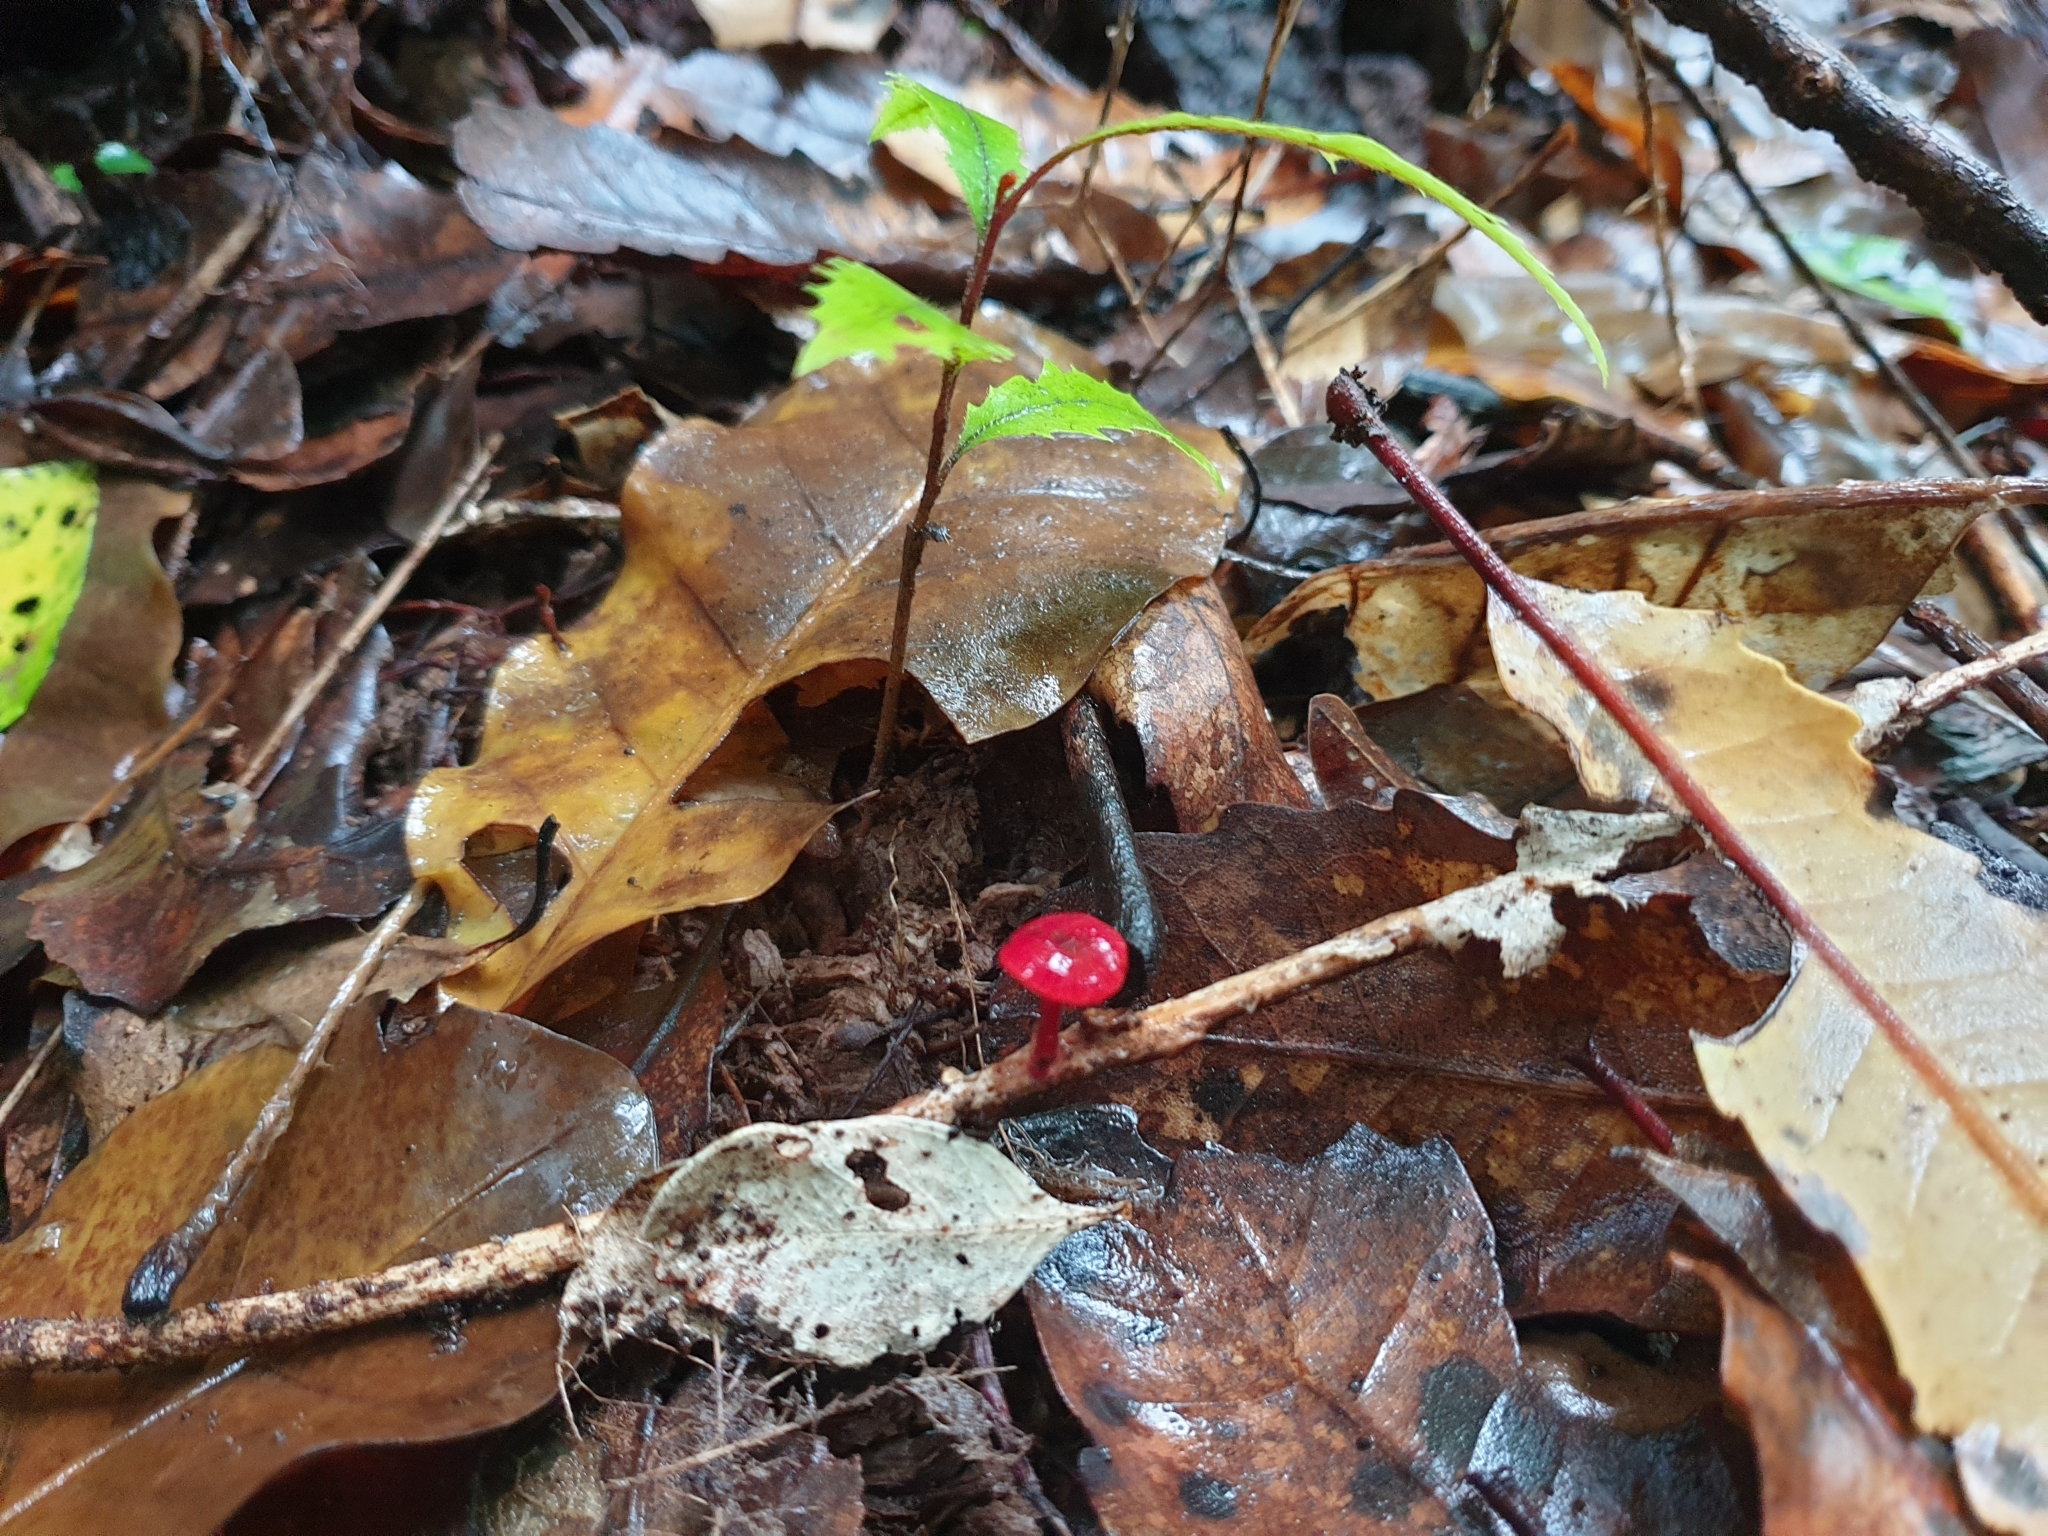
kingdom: Fungi
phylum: Basidiomycota
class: Agaricomycetes
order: Agaricales
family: Mycenaceae
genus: Cruentomycena
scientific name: Cruentomycena viscidocruenta
